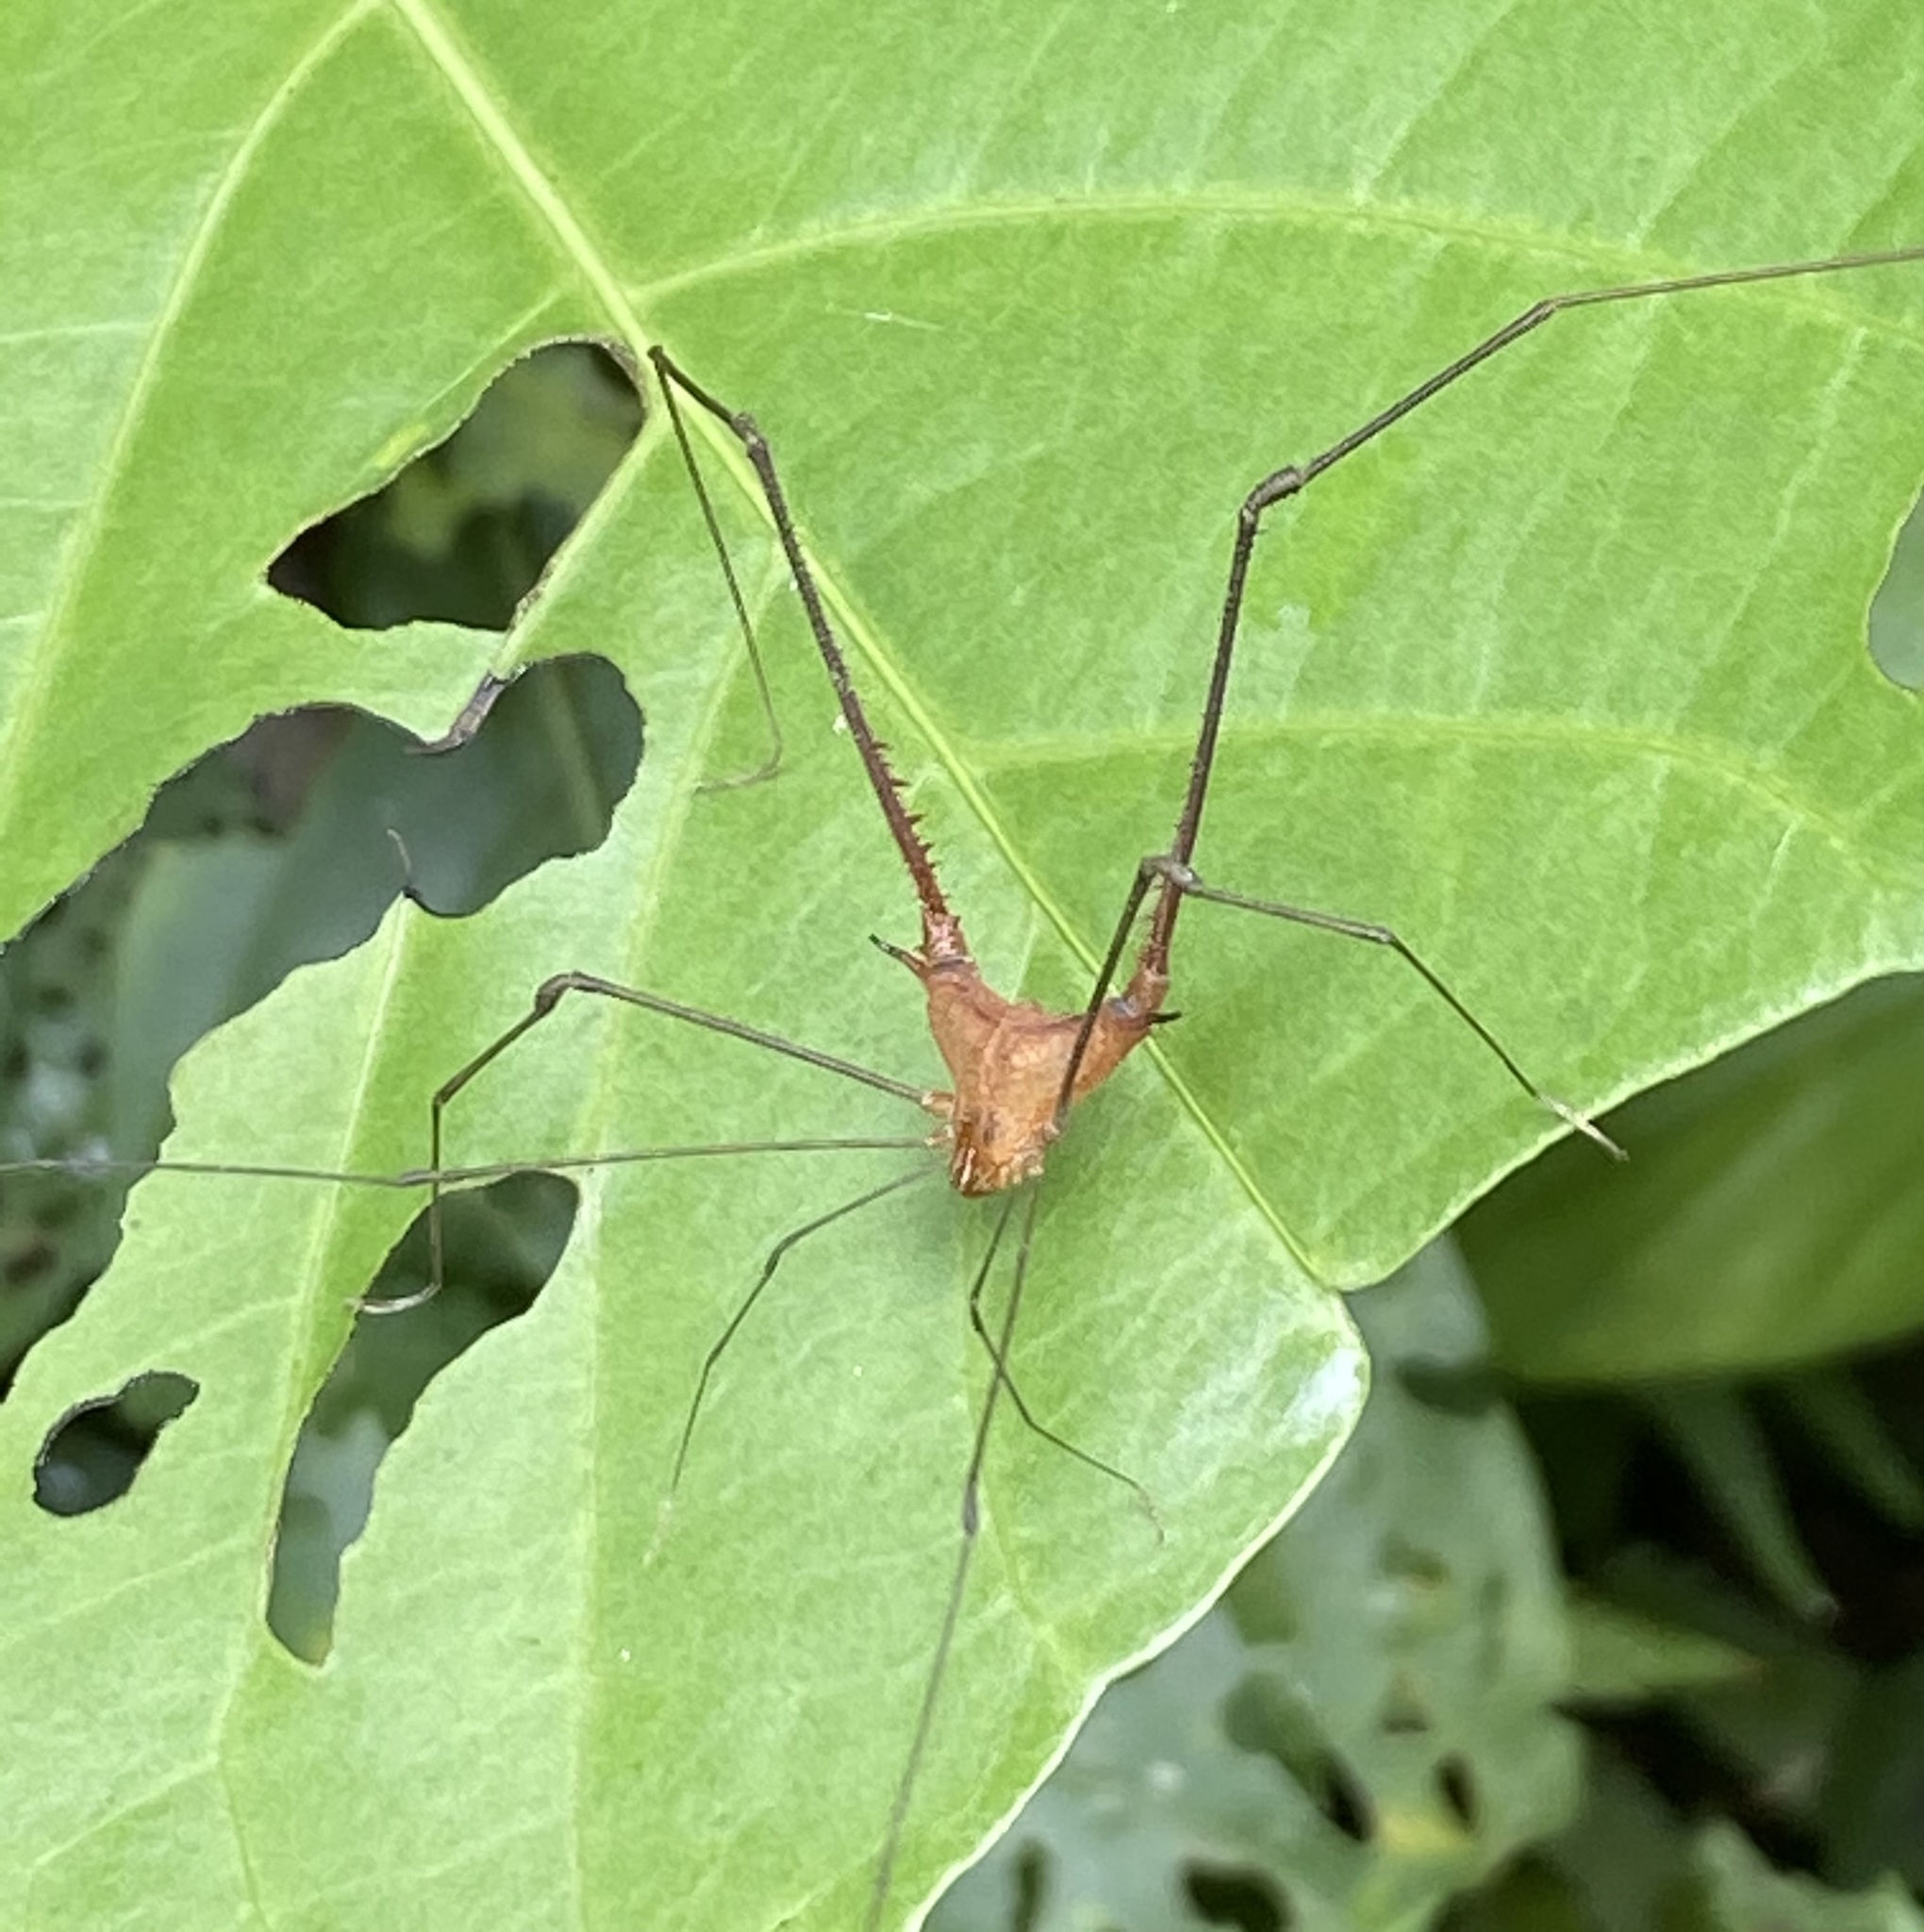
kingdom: Animalia
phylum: Arthropoda
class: Arachnida
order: Opiliones
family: Gonyleptidae
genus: Ampheres
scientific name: Ampheres triangularis
